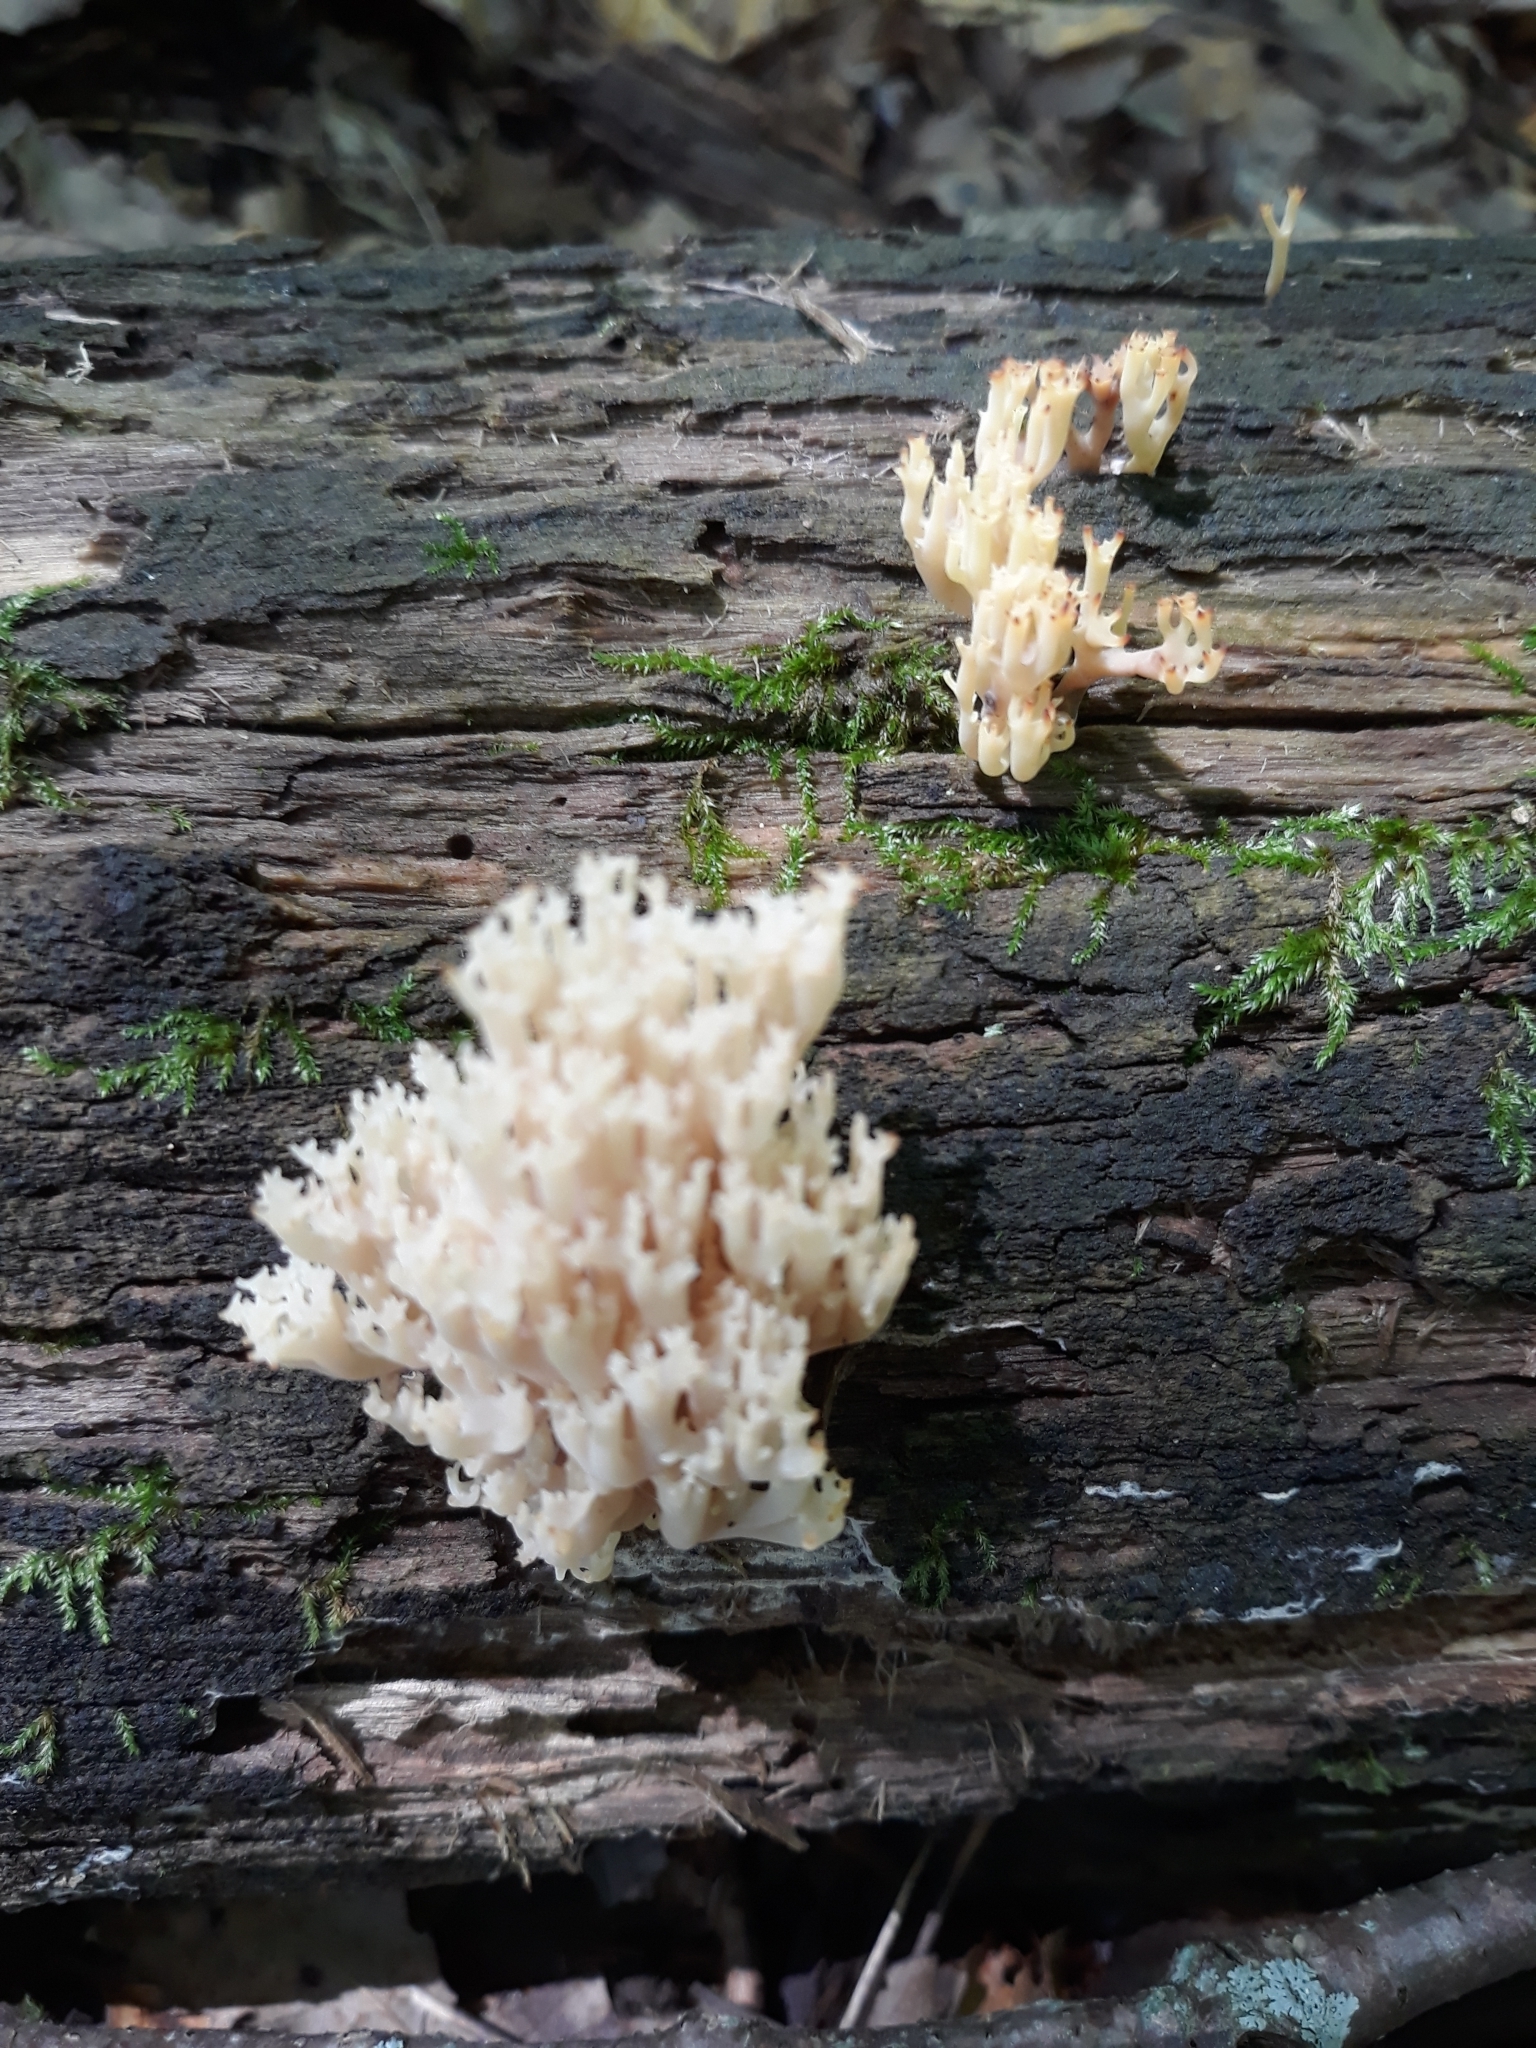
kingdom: Fungi
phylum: Basidiomycota
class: Agaricomycetes
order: Russulales
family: Auriscalpiaceae
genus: Artomyces
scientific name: Artomyces pyxidatus
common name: Crown-tipped coral fungus
